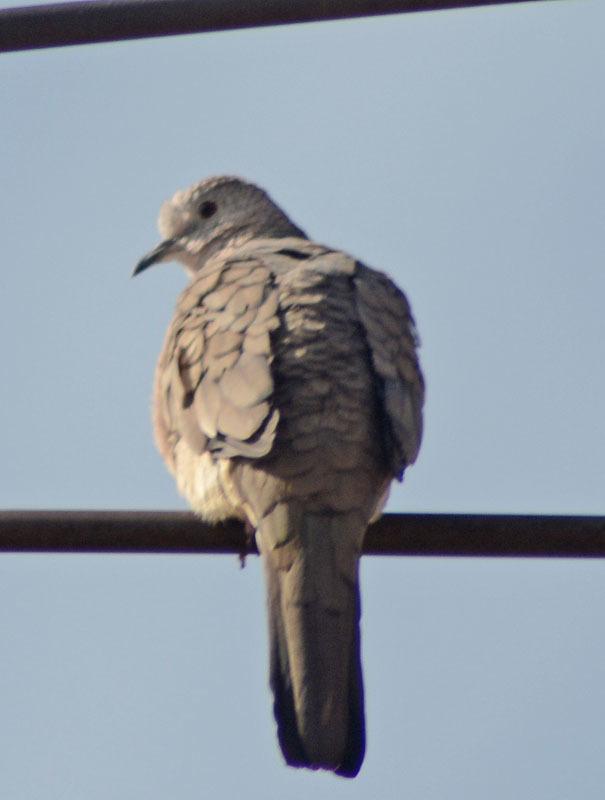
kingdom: Animalia
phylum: Chordata
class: Aves
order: Columbiformes
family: Columbidae
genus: Columbina
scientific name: Columbina inca
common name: Inca dove
